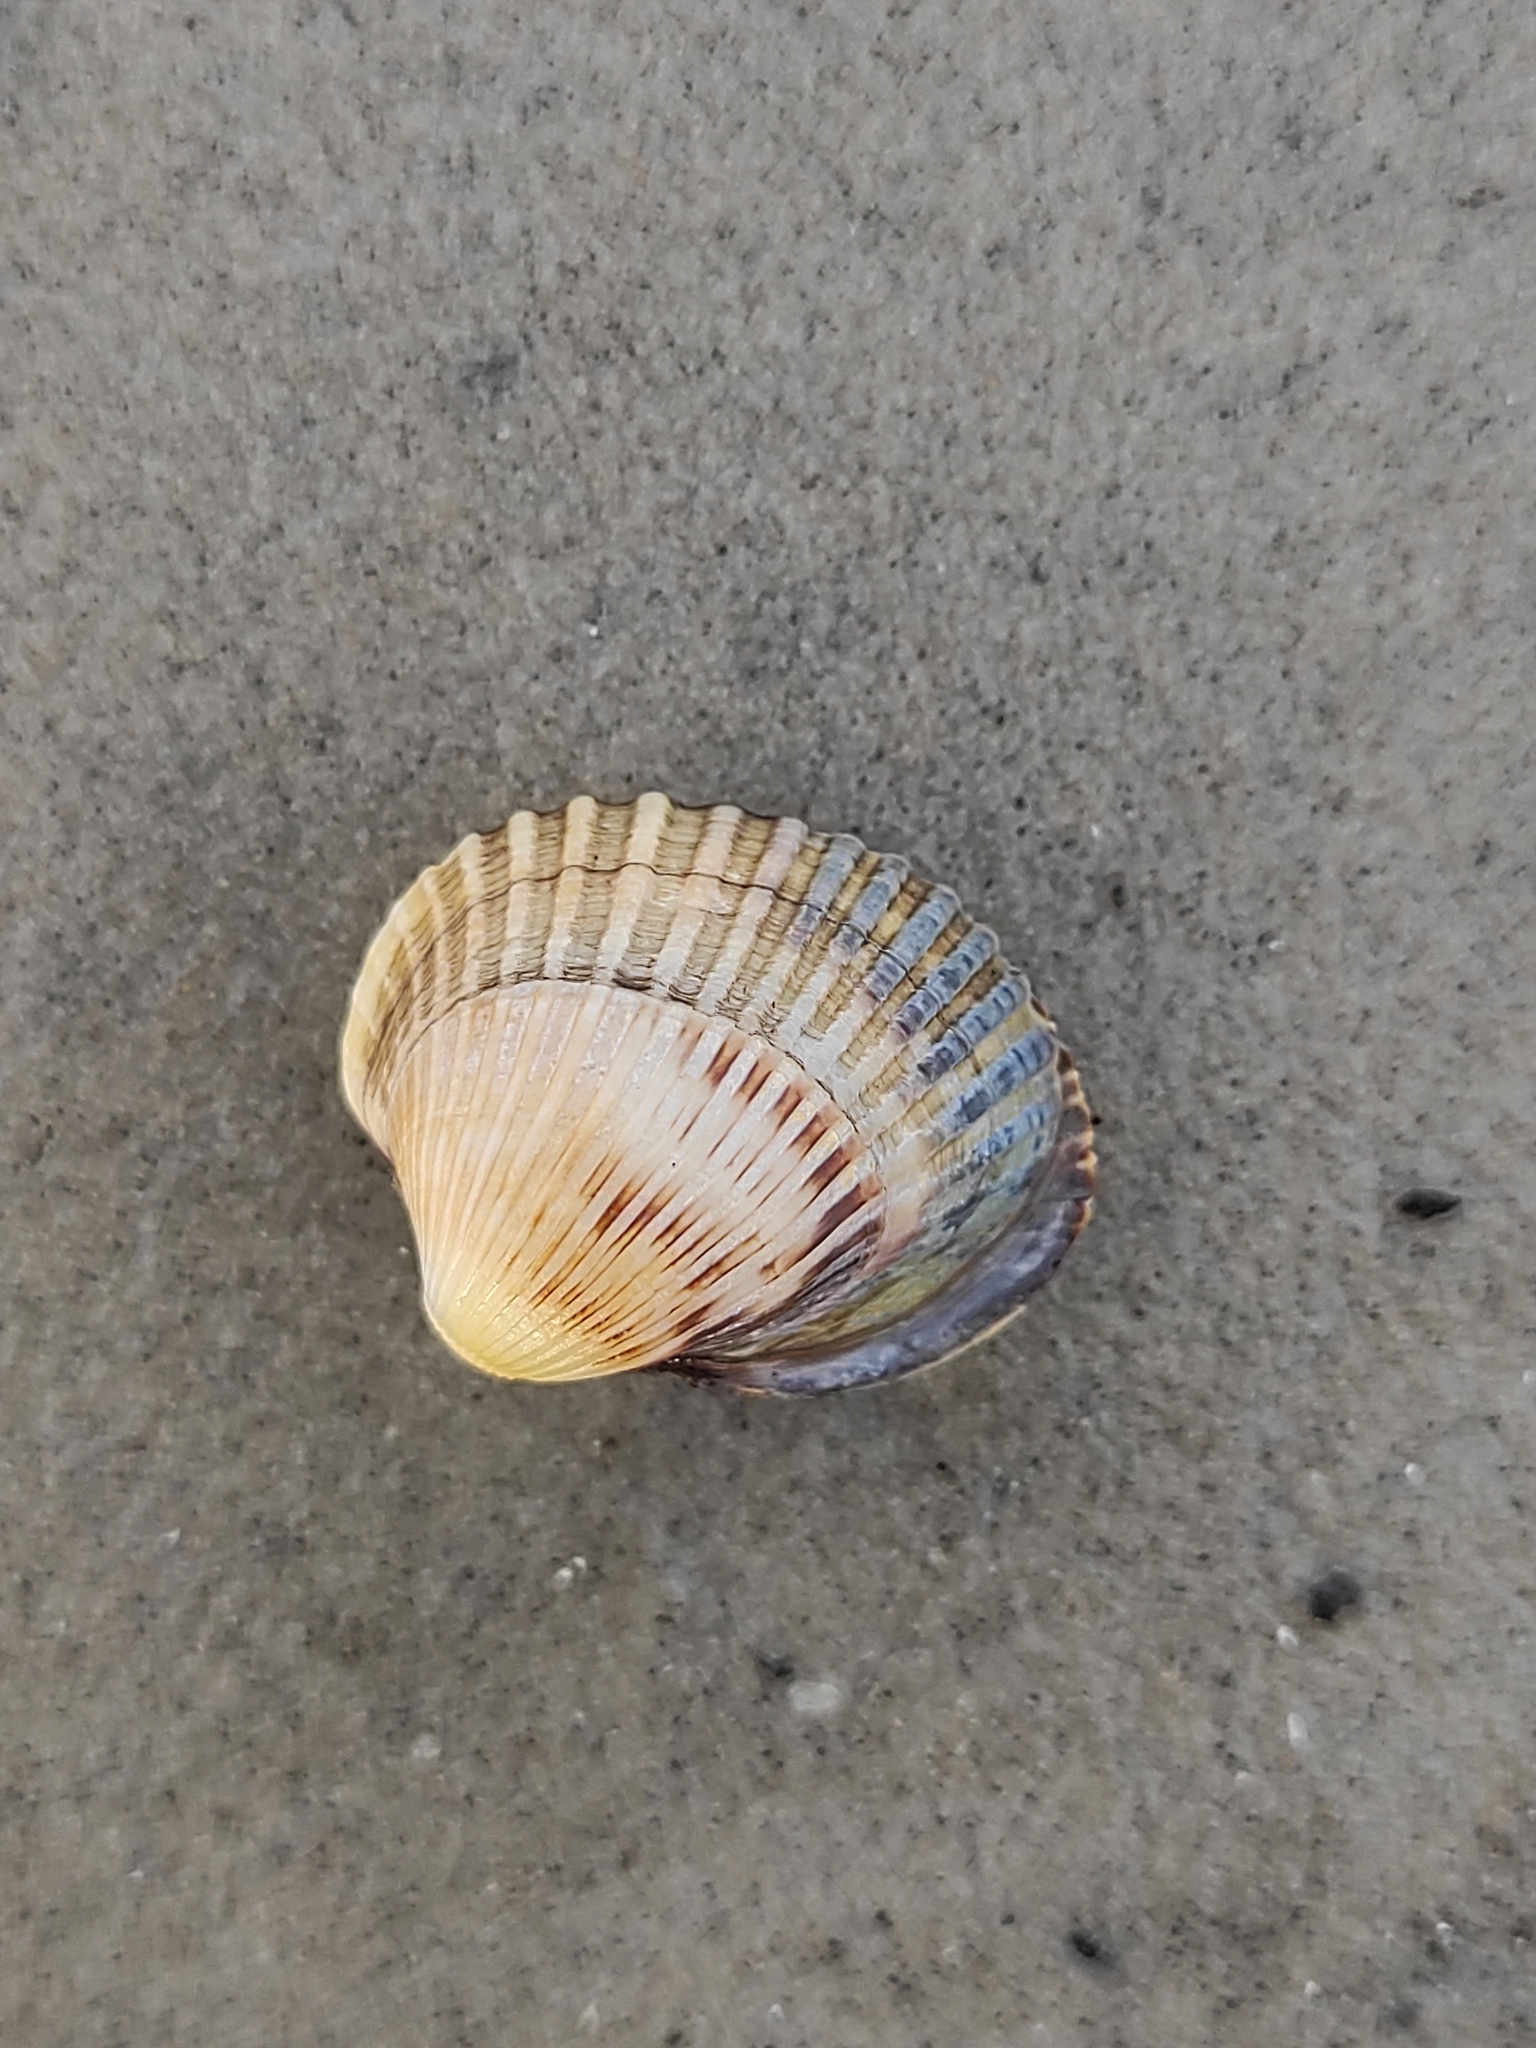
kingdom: Animalia
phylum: Mollusca
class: Bivalvia
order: Cardiida
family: Cardiidae
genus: Cerastoderma
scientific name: Cerastoderma glaucum
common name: Lagoon cockle
